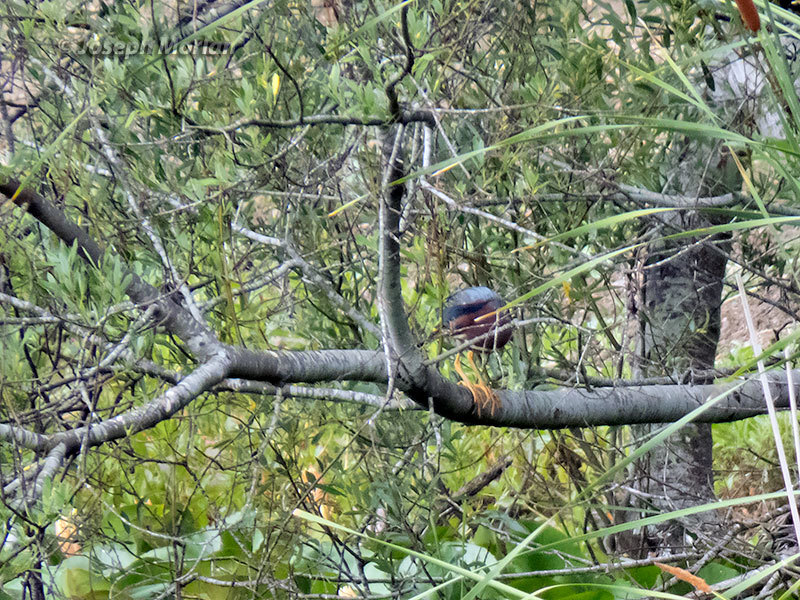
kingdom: Animalia
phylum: Chordata
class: Aves
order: Pelecaniformes
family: Ardeidae
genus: Butorides
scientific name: Butorides virescens
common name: Green heron
